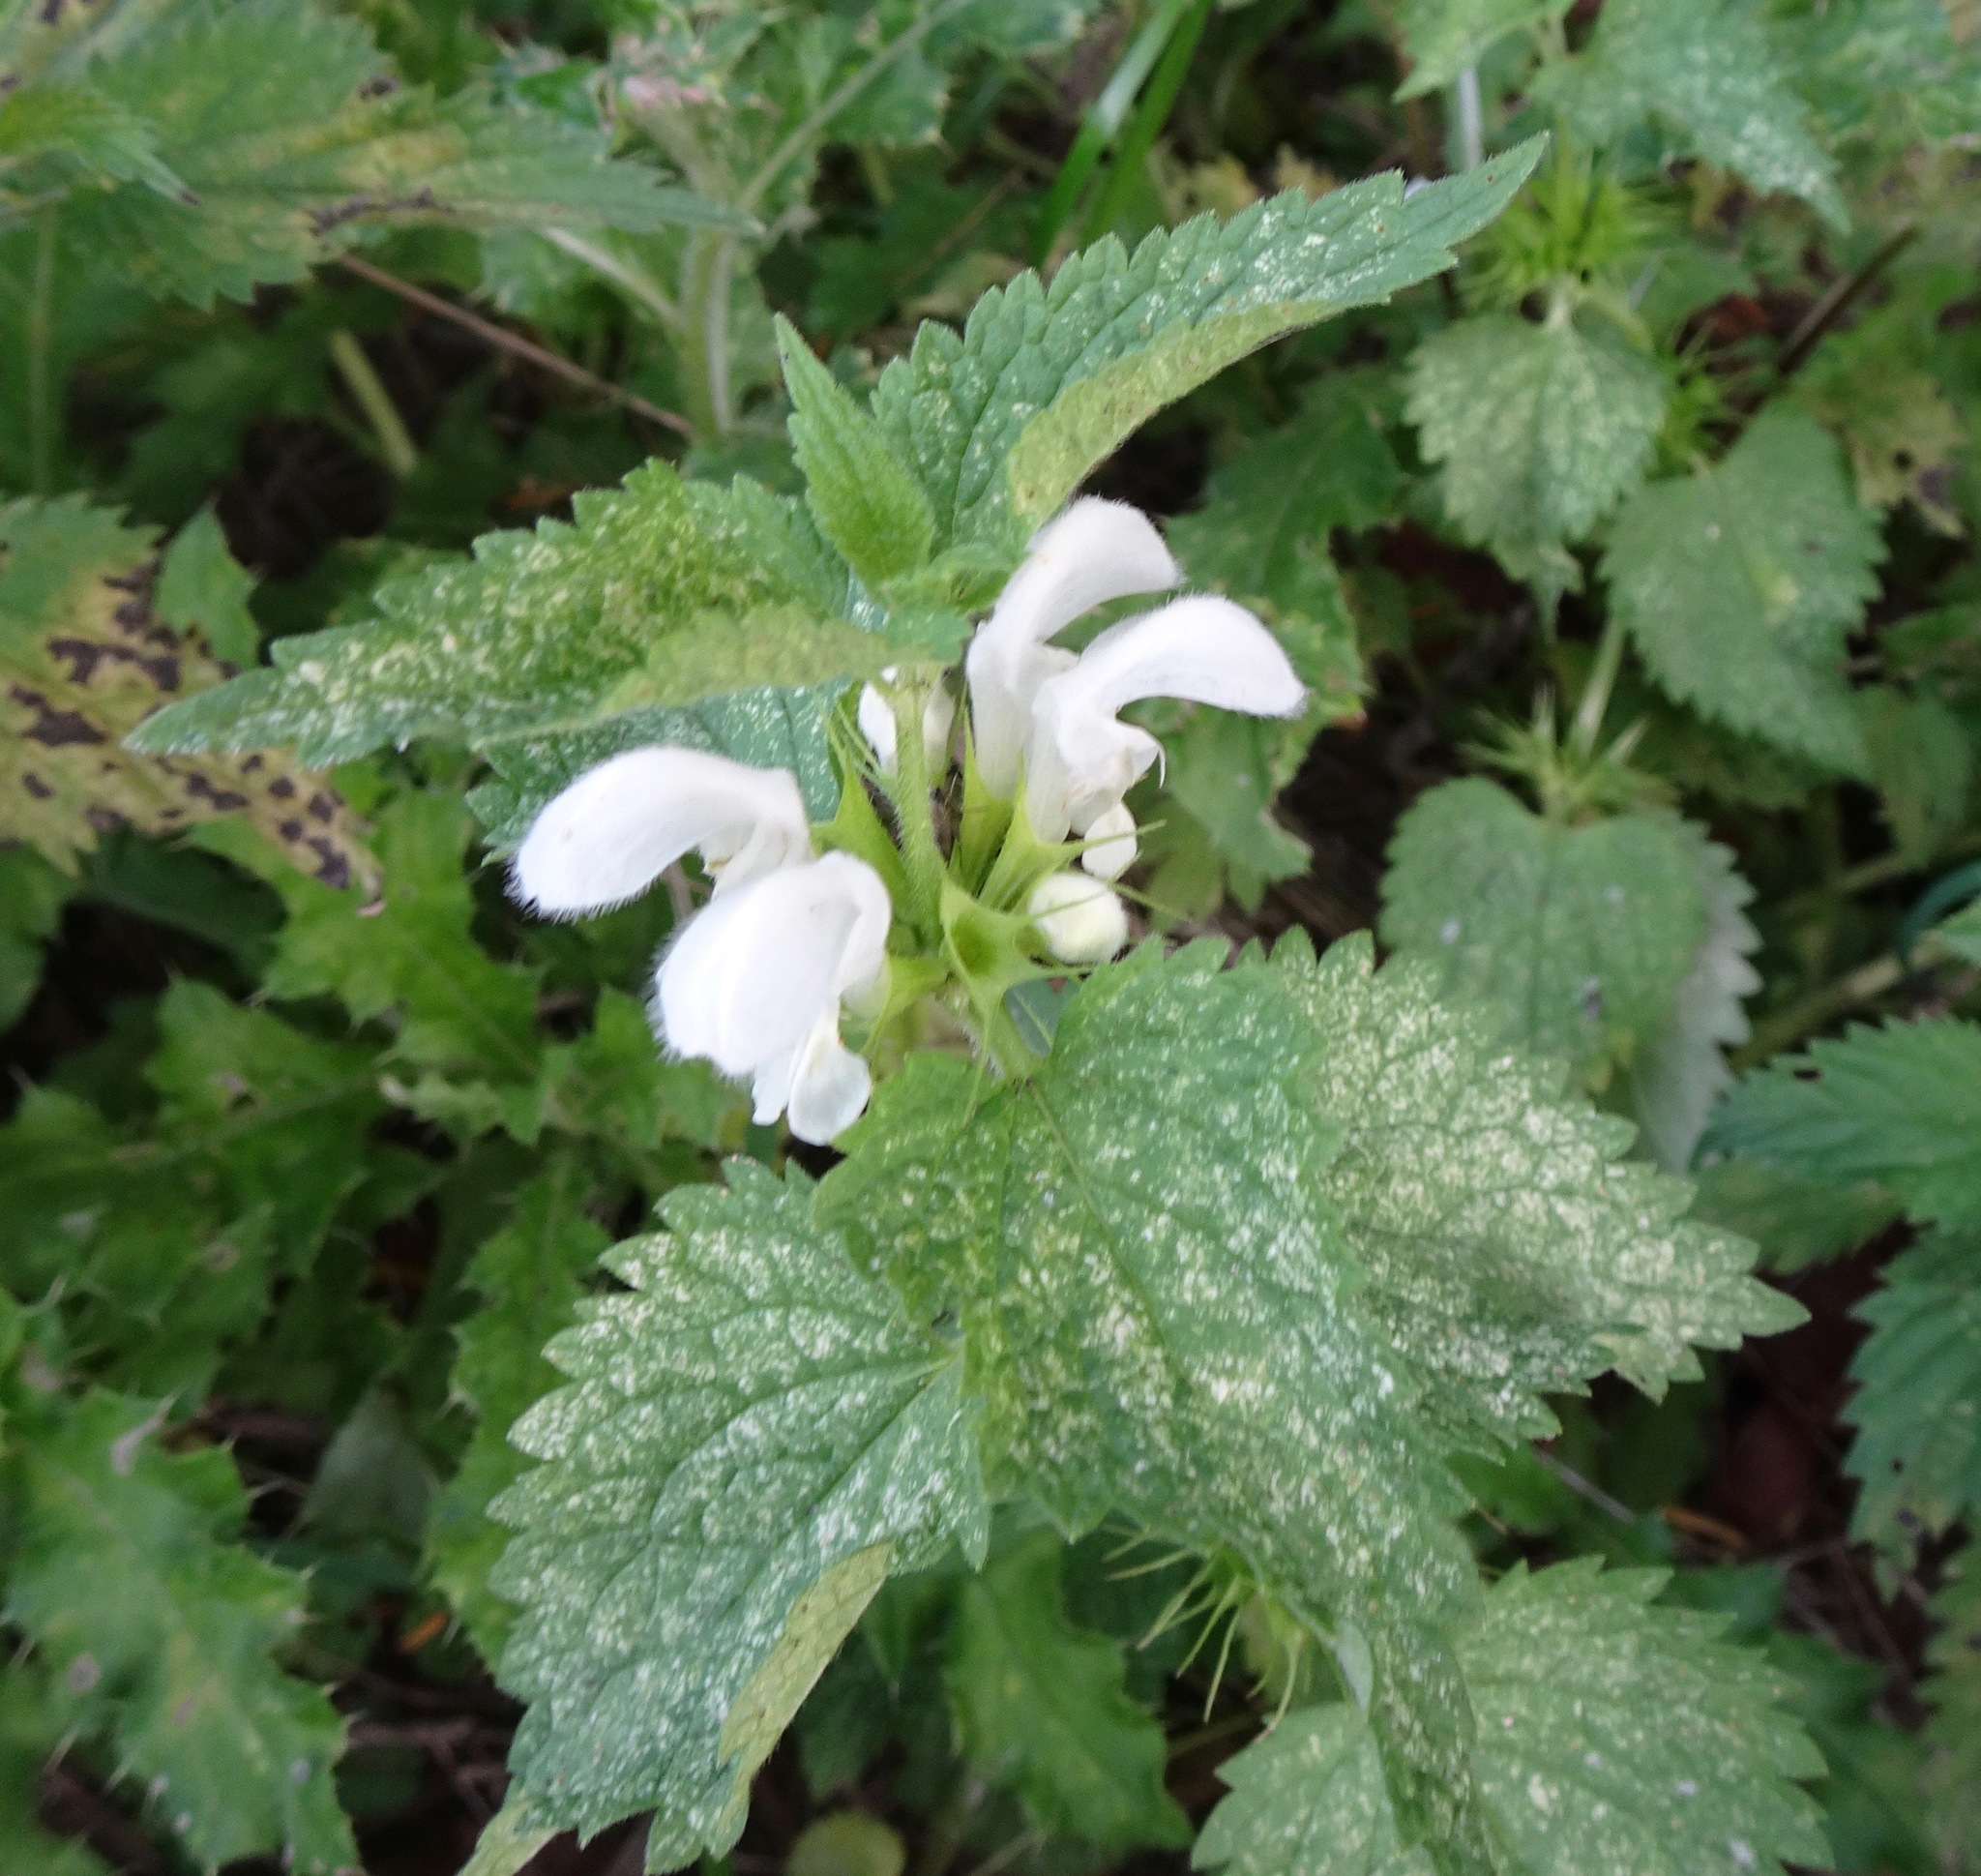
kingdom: Plantae
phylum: Tracheophyta
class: Magnoliopsida
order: Lamiales
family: Lamiaceae
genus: Lamium
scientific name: Lamium album
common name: White dead-nettle
